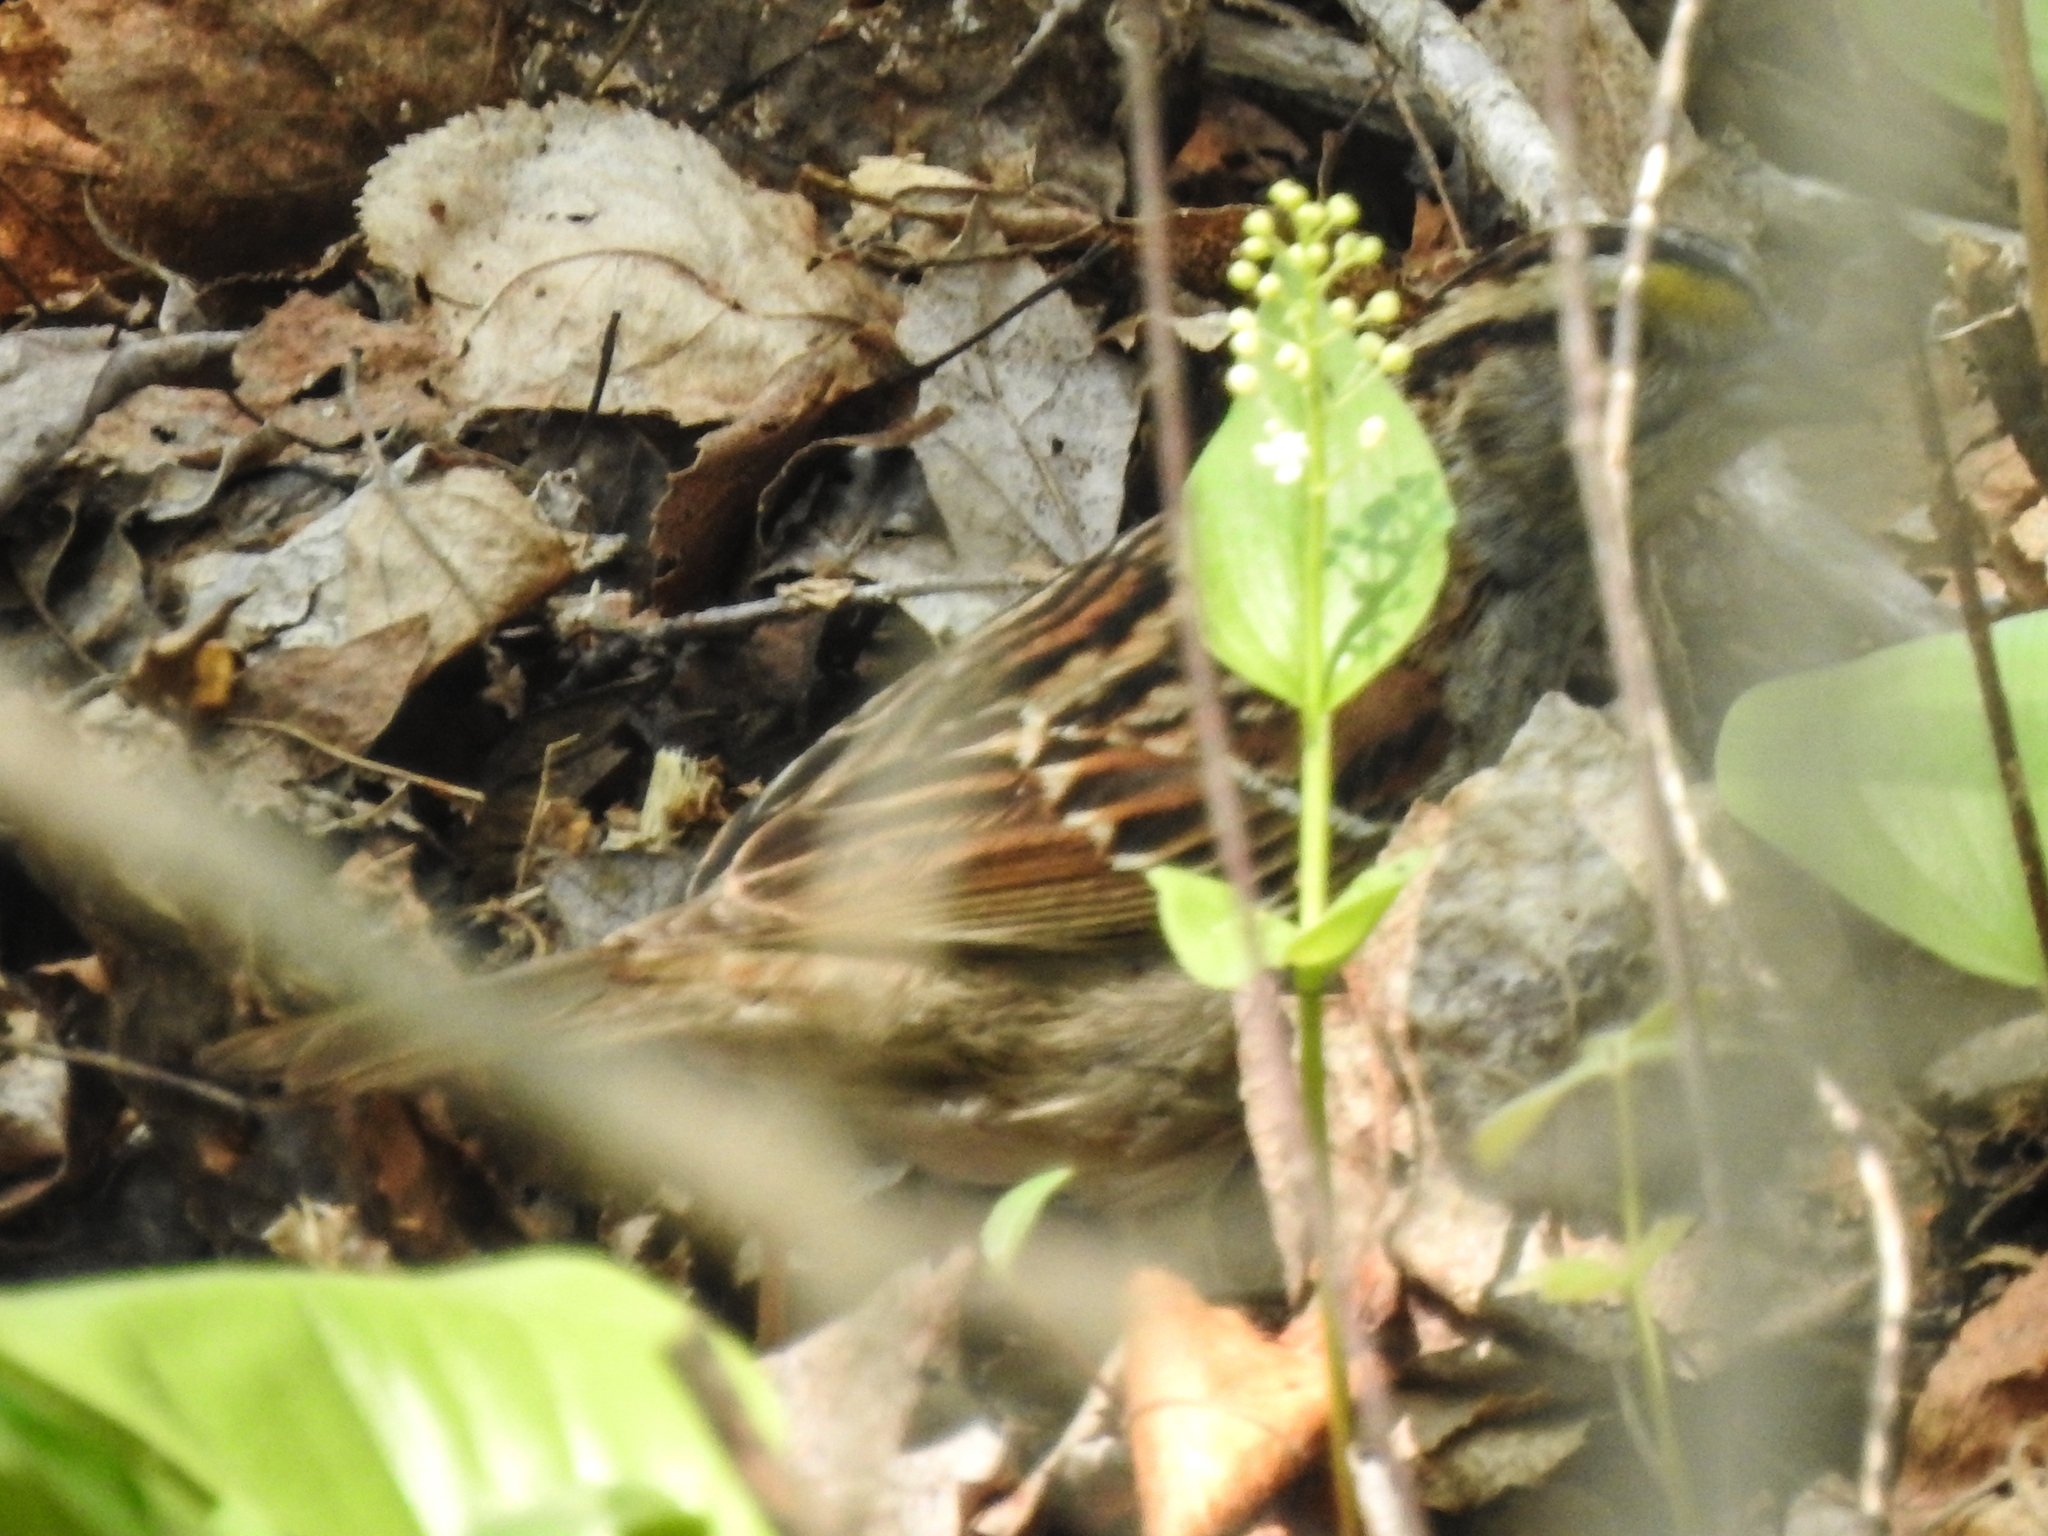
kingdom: Animalia
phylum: Chordata
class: Aves
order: Passeriformes
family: Passerellidae
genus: Zonotrichia
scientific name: Zonotrichia albicollis
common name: White-throated sparrow
